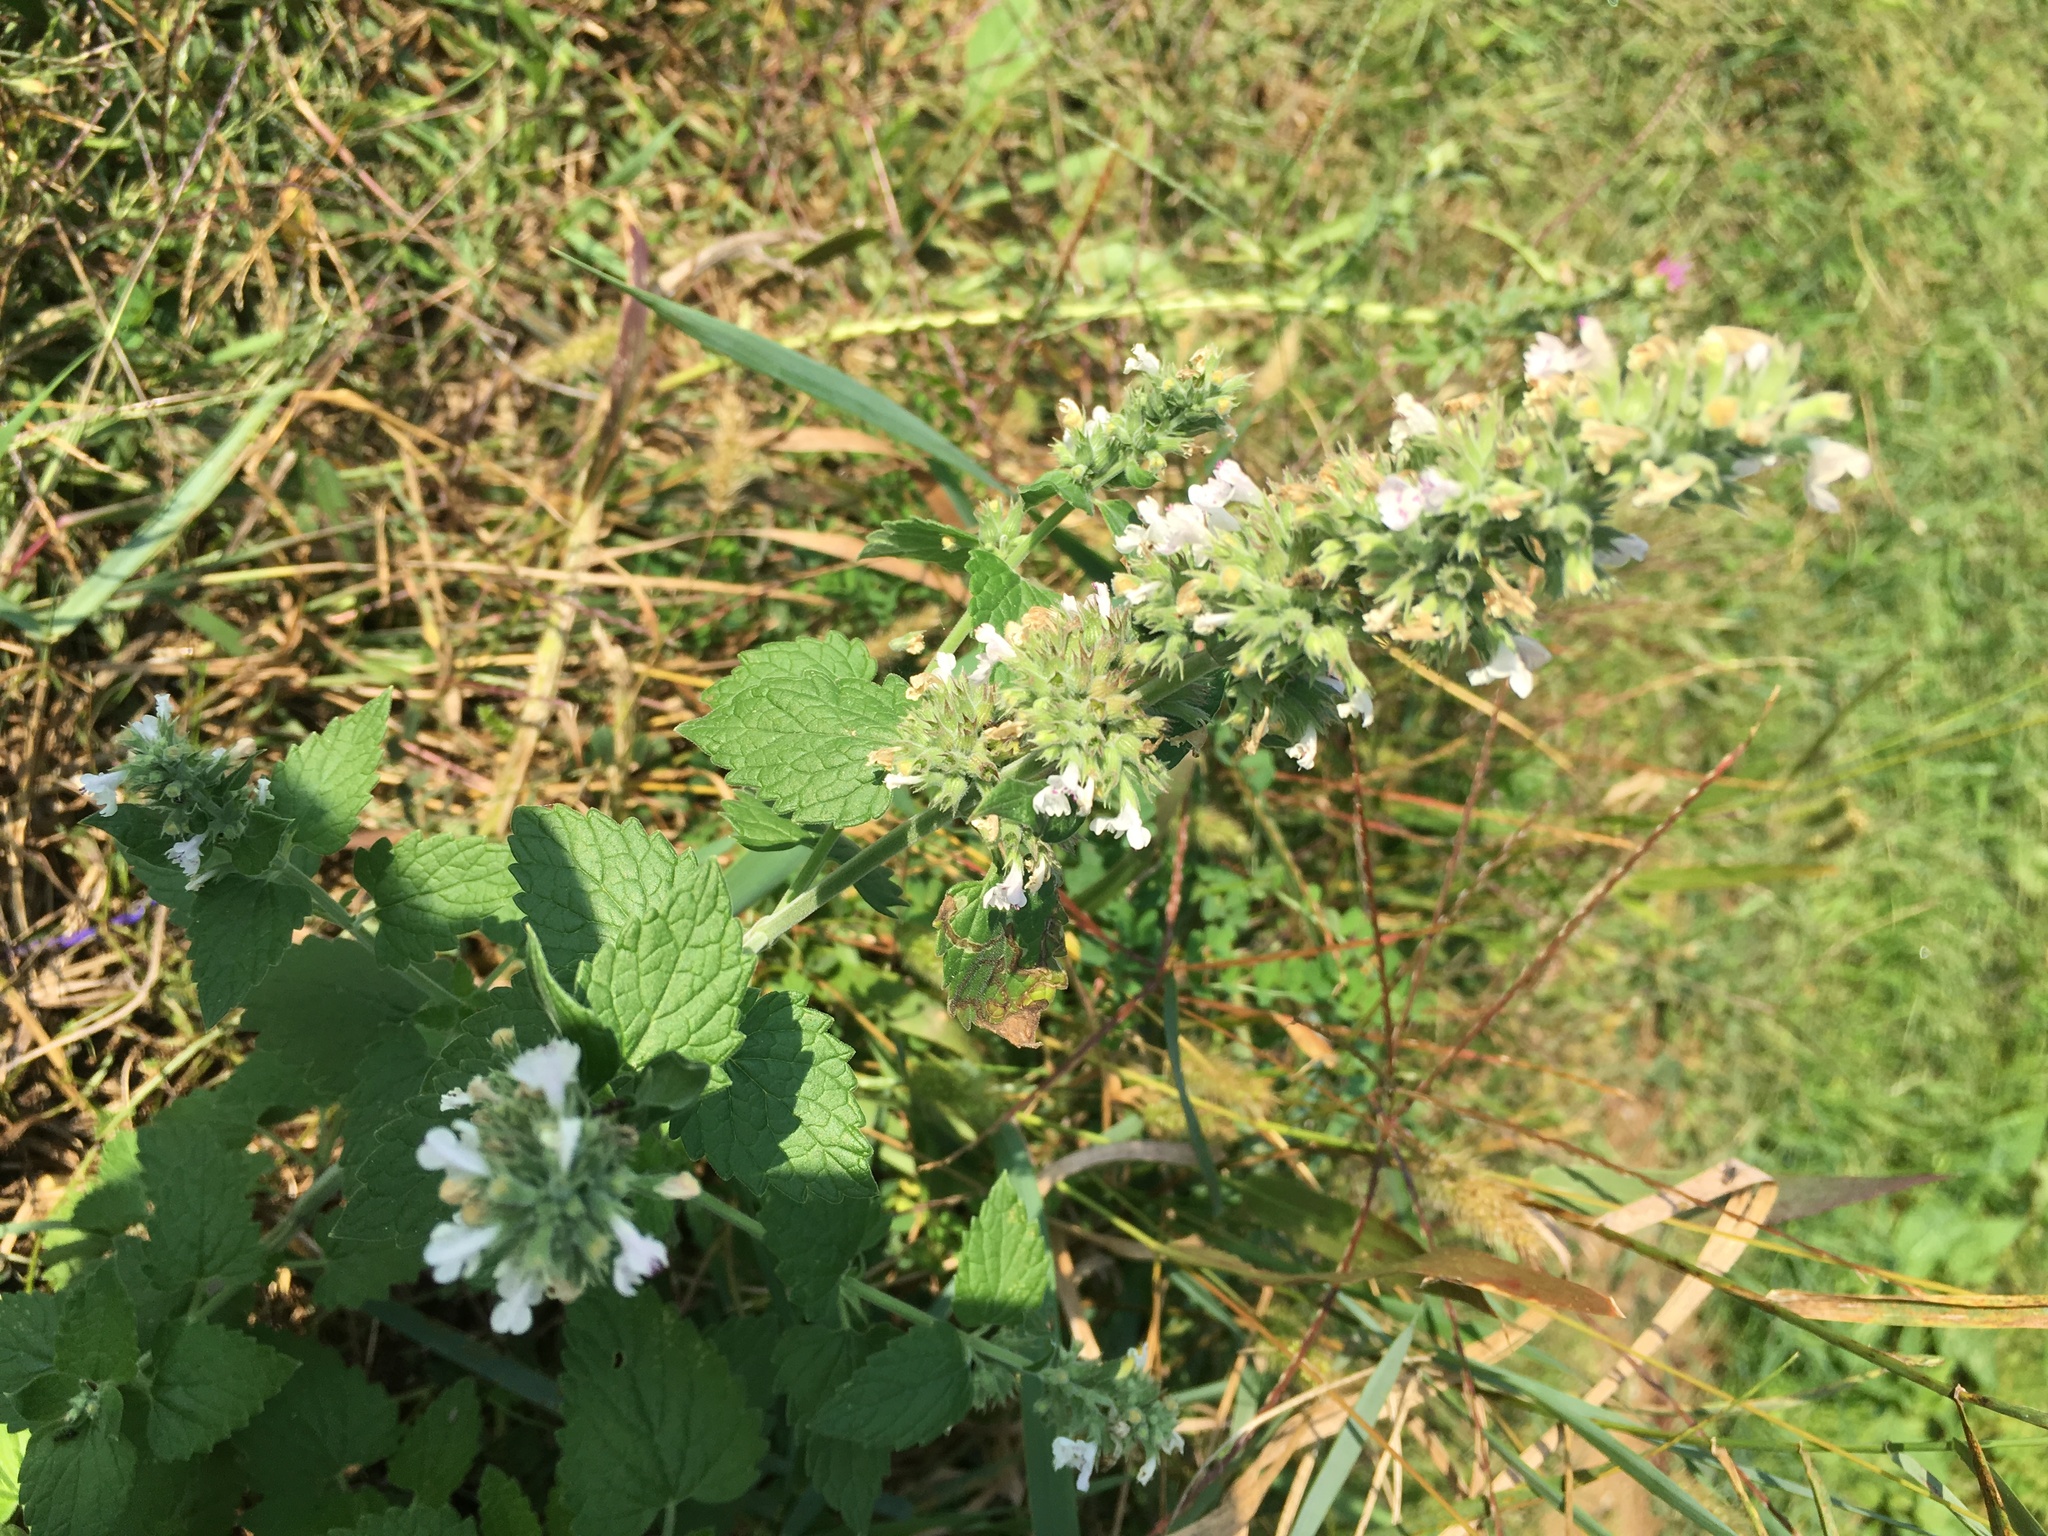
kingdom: Plantae
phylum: Tracheophyta
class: Magnoliopsida
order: Lamiales
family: Lamiaceae
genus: Nepeta
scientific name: Nepeta cataria
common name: Catnip
